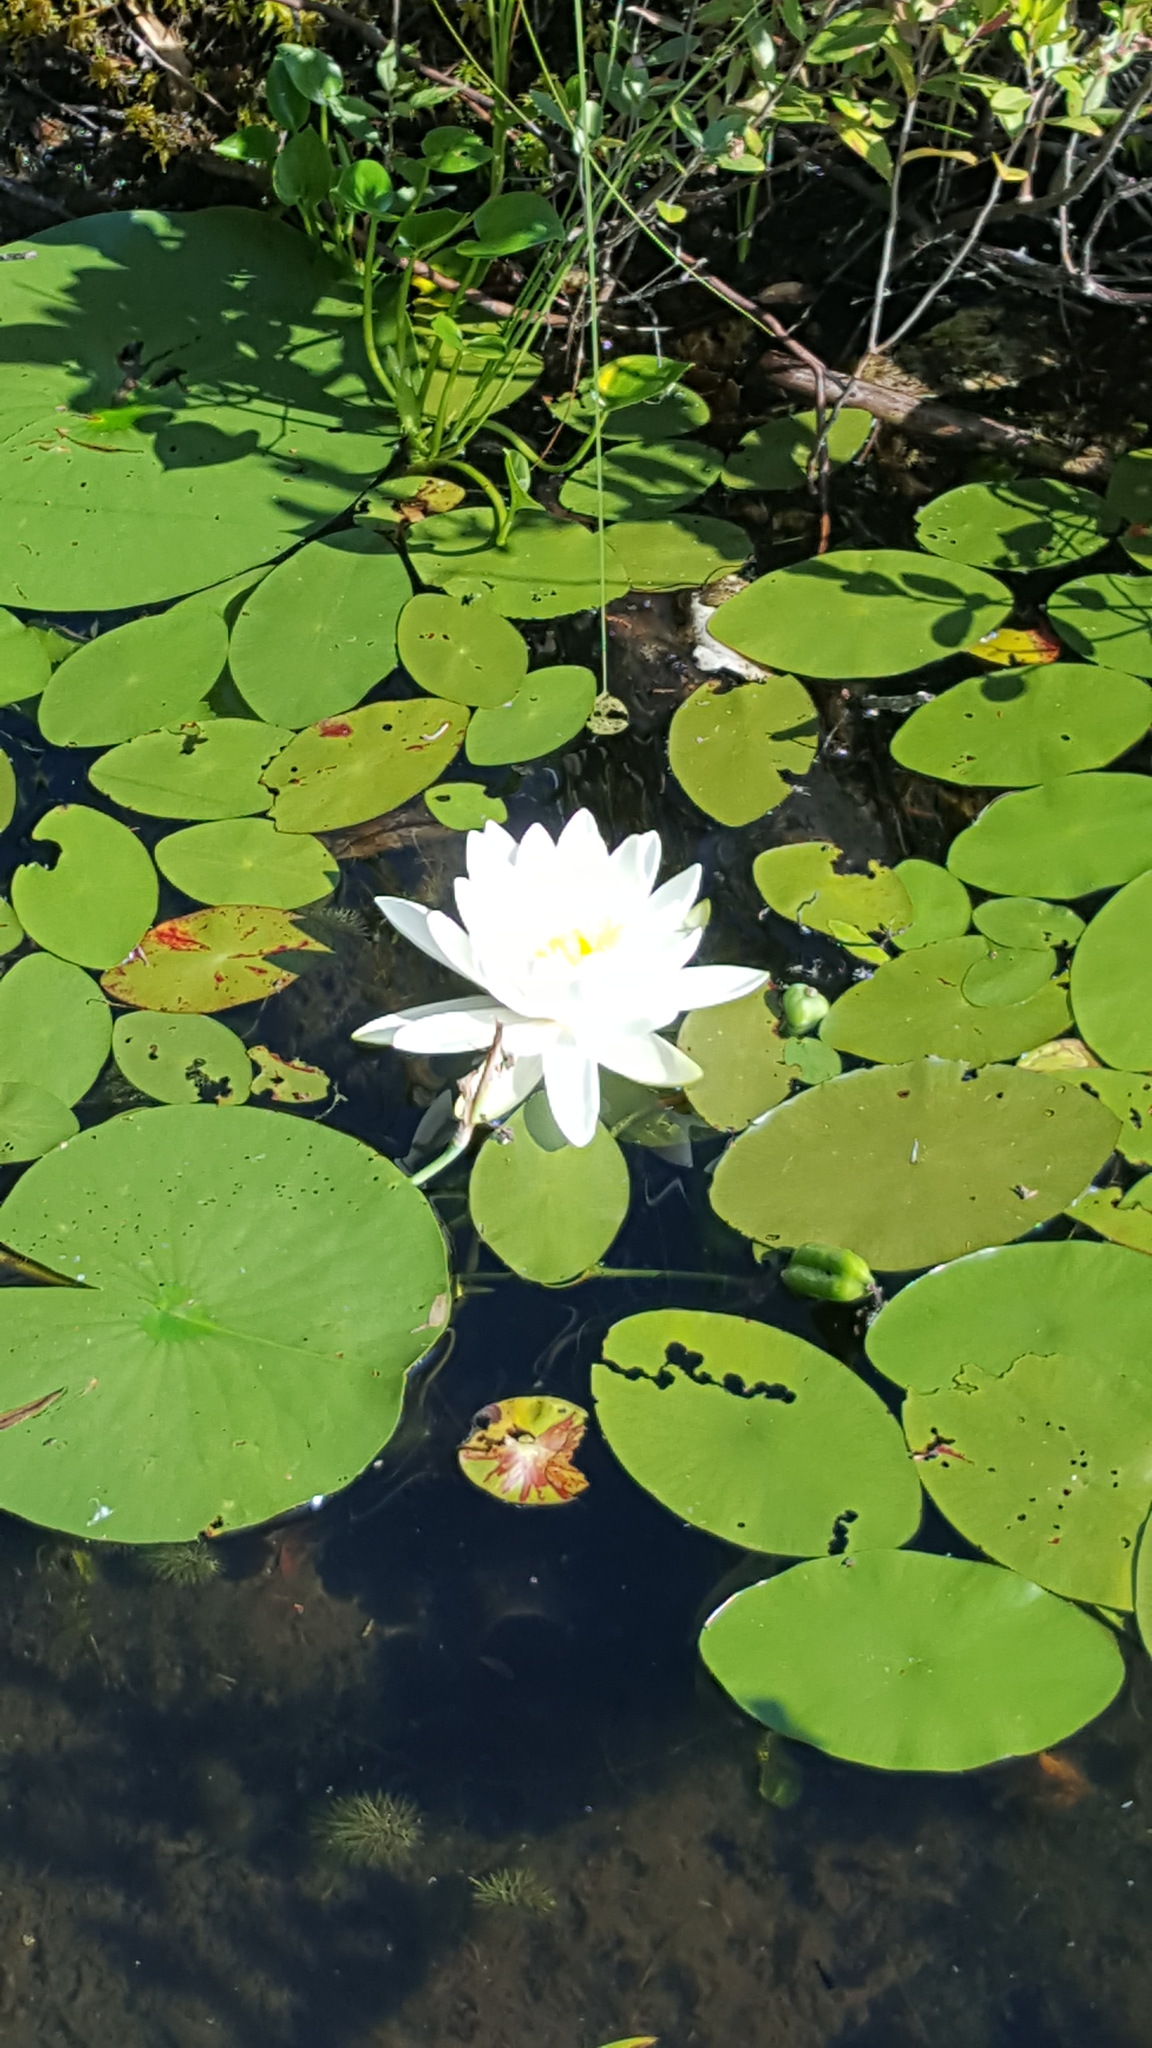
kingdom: Plantae
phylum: Tracheophyta
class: Magnoliopsida
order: Nymphaeales
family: Nymphaeaceae
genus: Nymphaea
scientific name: Nymphaea odorata
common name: Fragrant water-lily
